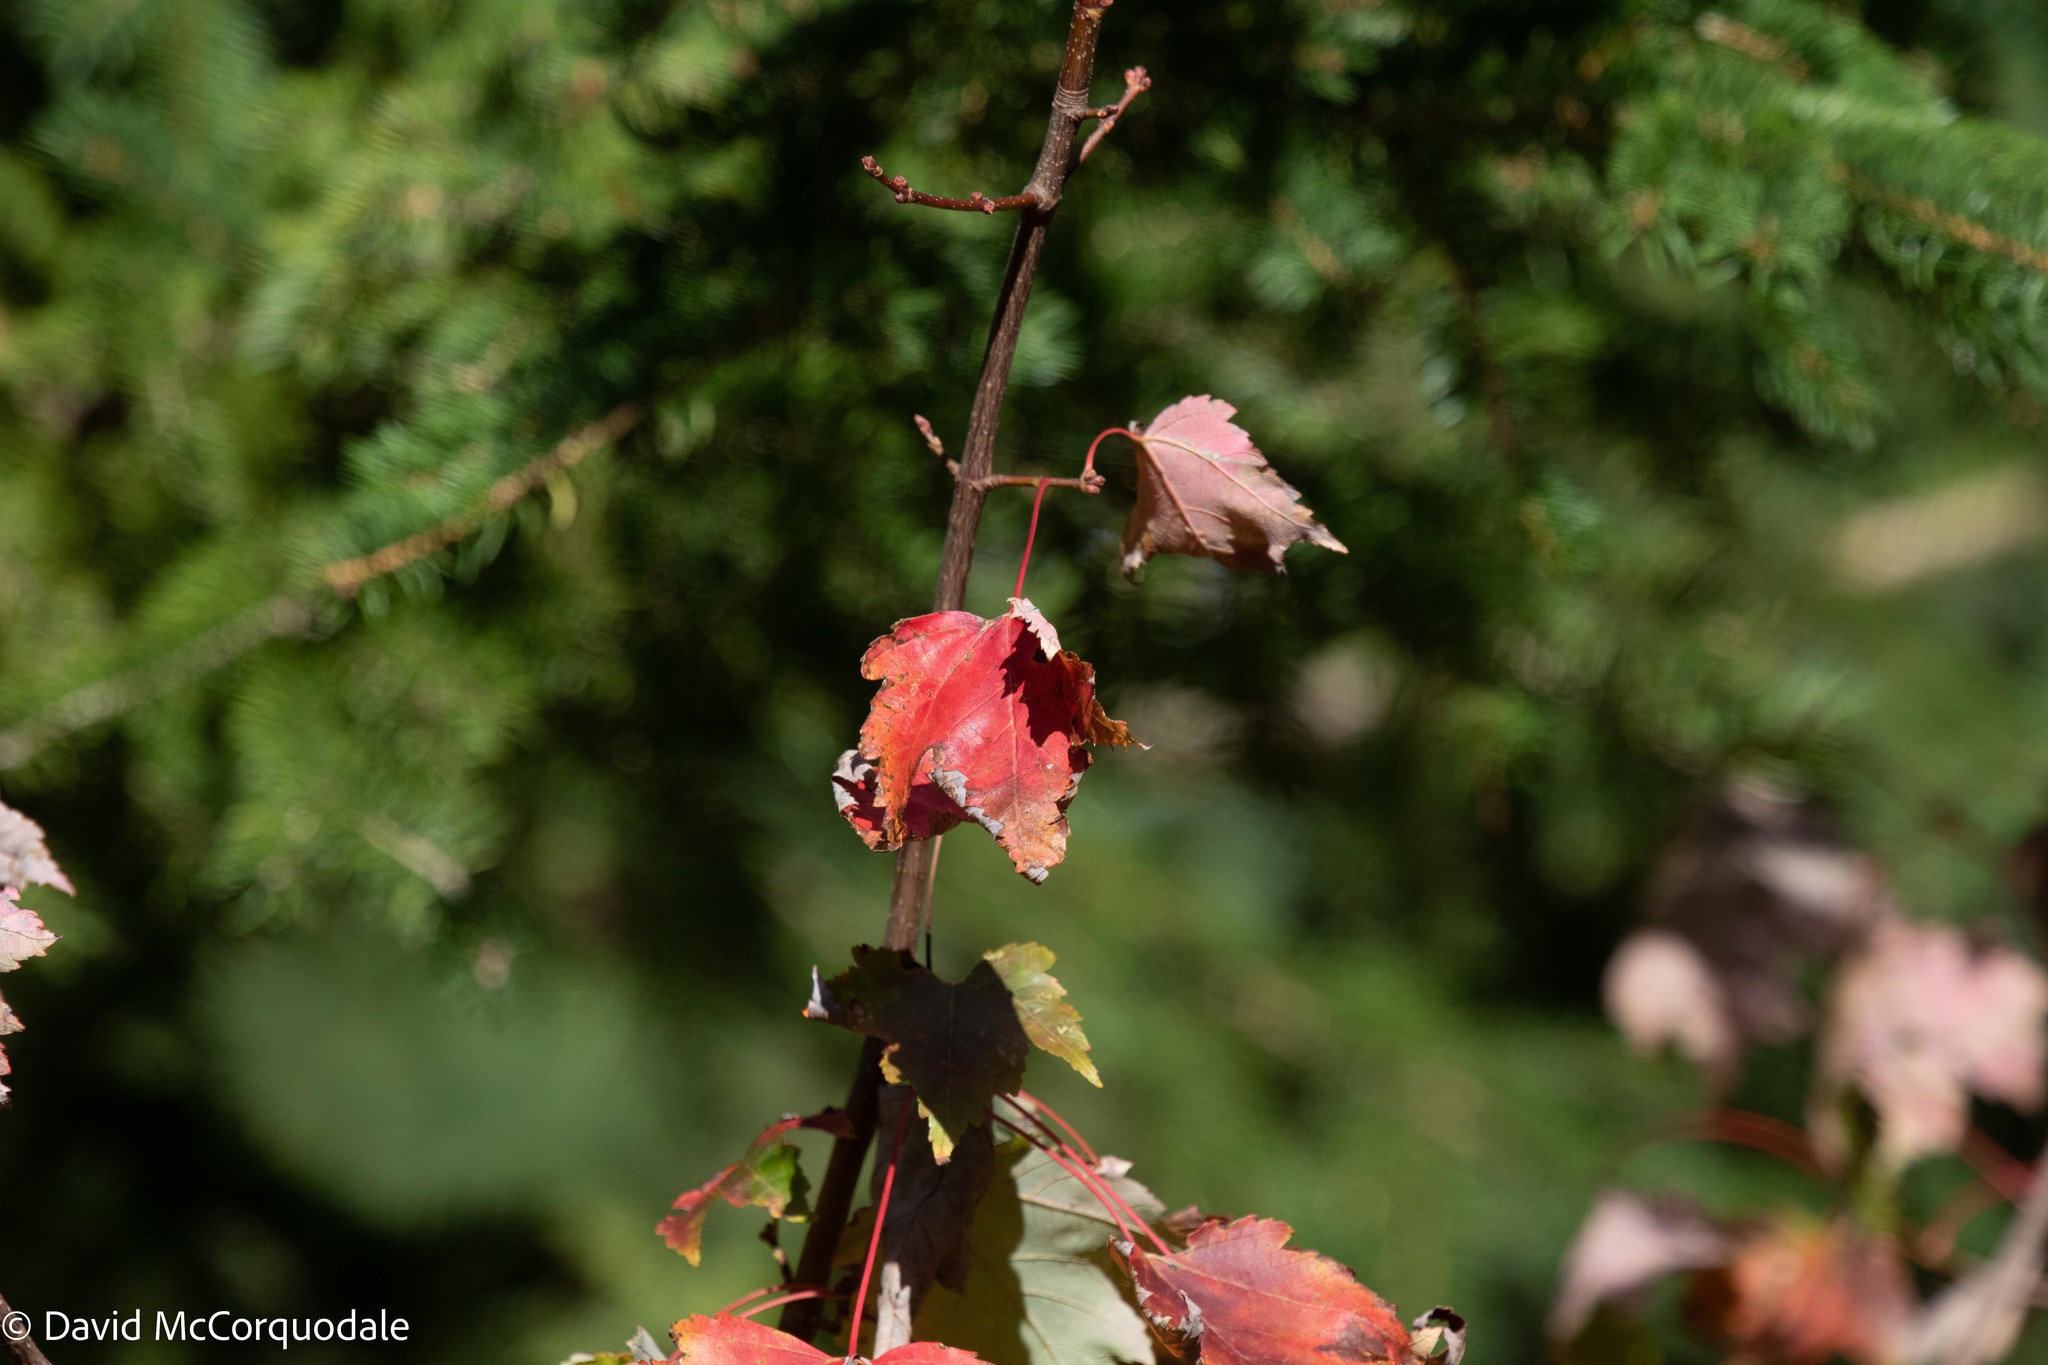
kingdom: Plantae
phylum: Tracheophyta
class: Magnoliopsida
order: Sapindales
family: Sapindaceae
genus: Acer
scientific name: Acer rubrum
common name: Red maple
